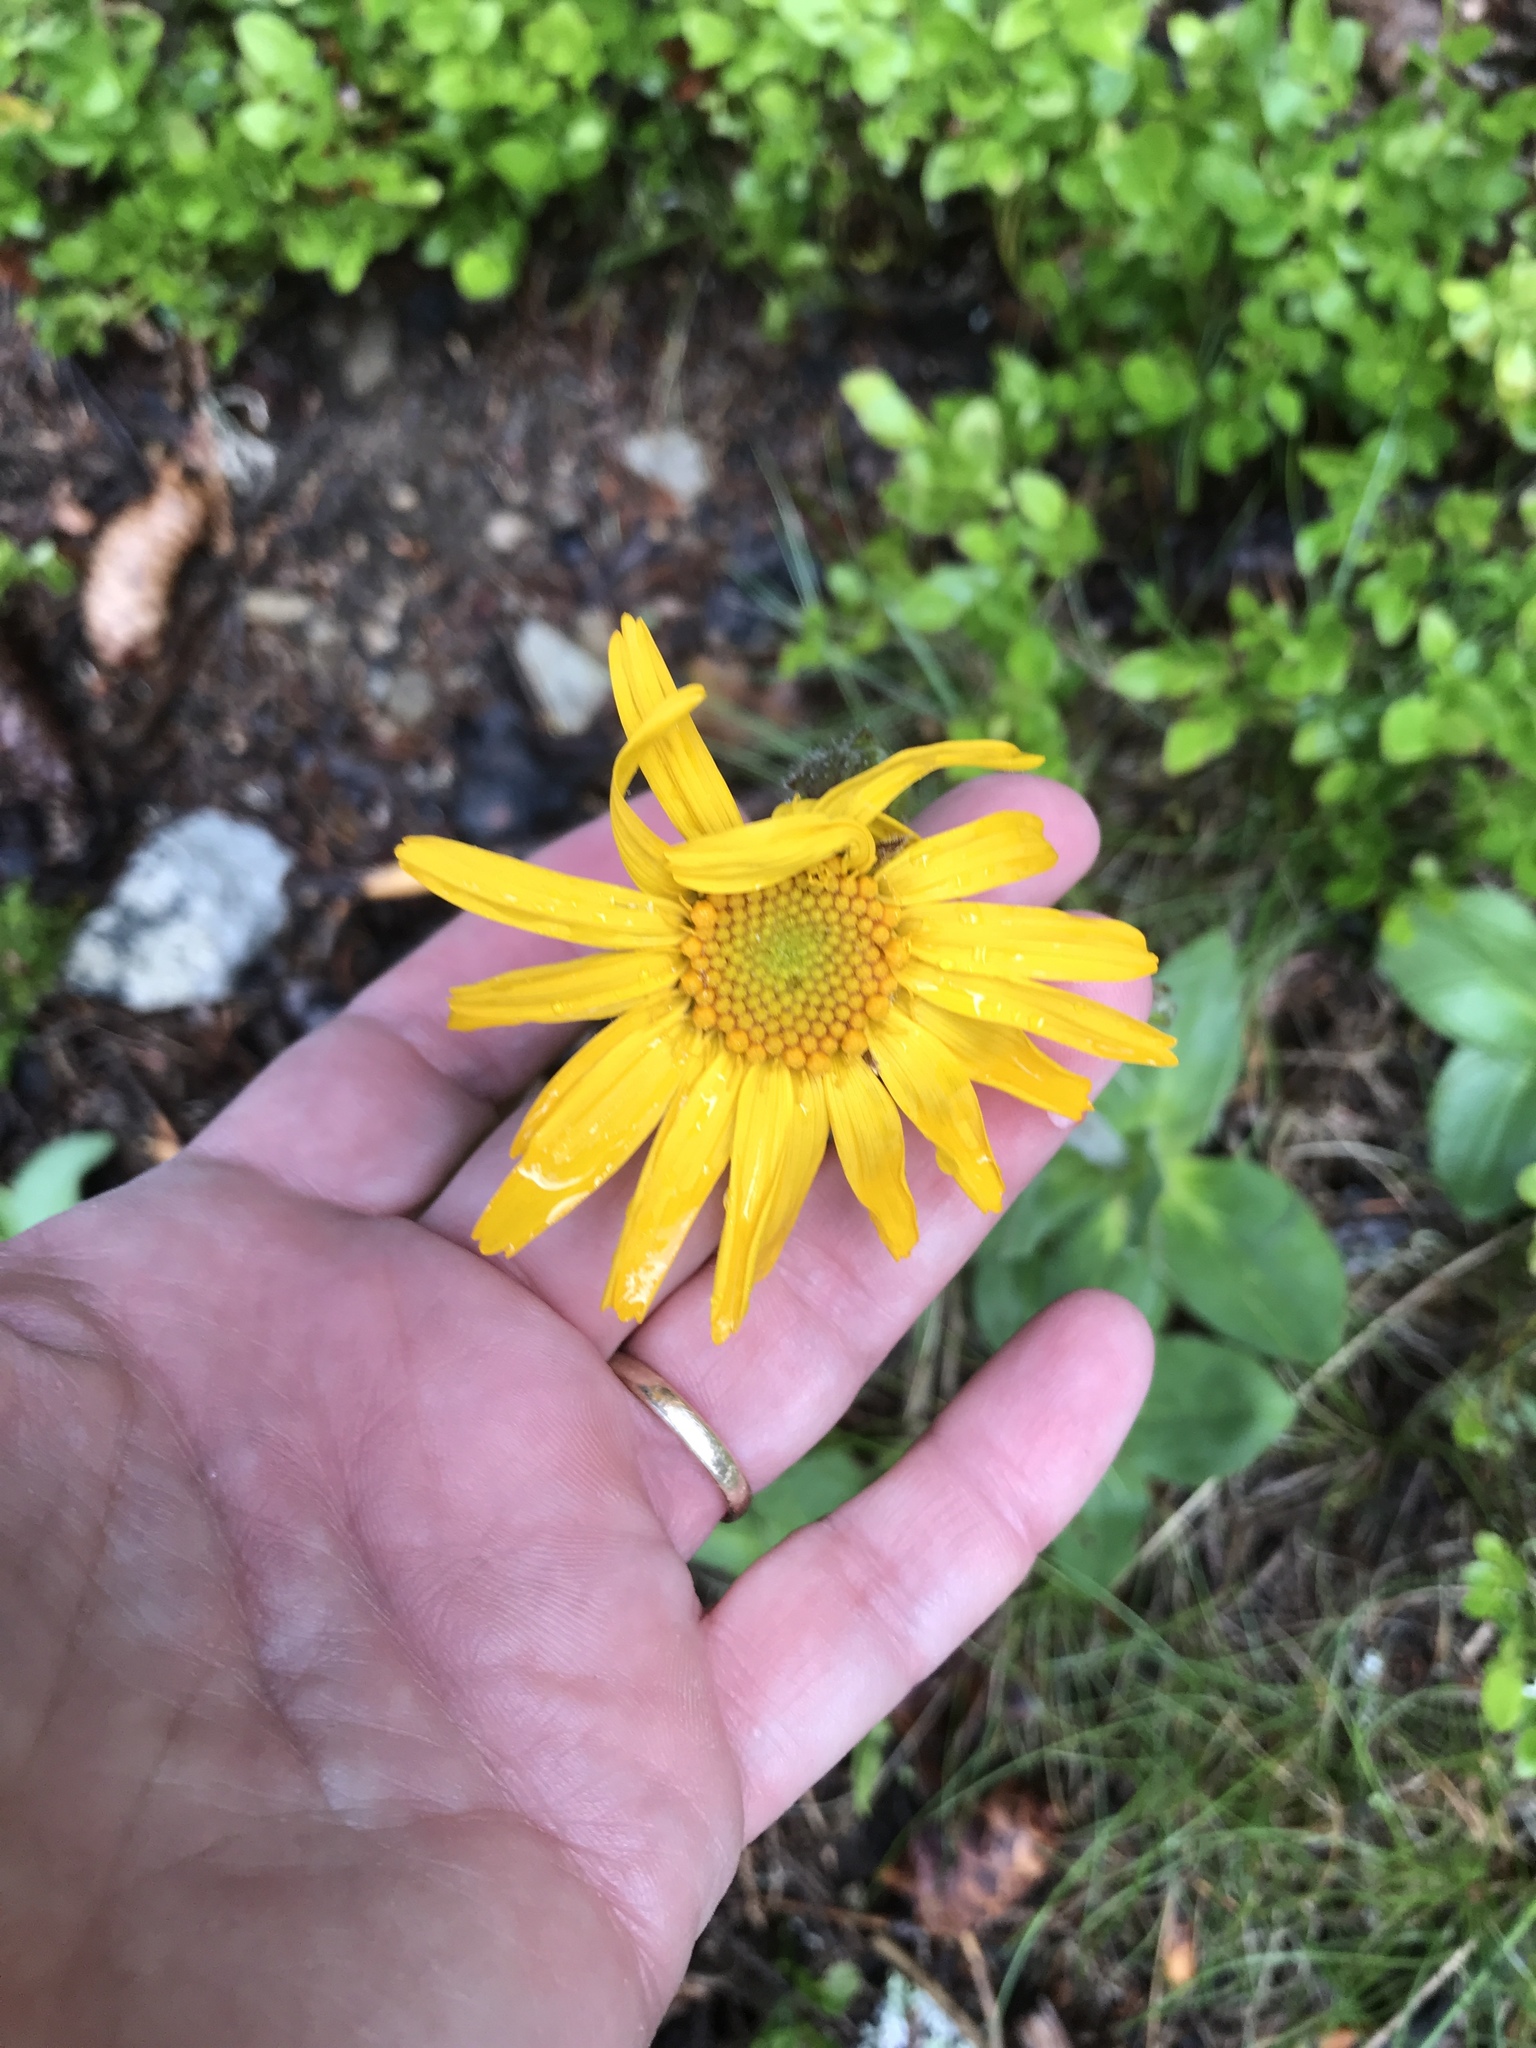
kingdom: Plantae
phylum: Tracheophyta
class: Magnoliopsida
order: Asterales
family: Asteraceae
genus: Arnica
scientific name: Arnica montana
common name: Leopard's bane
